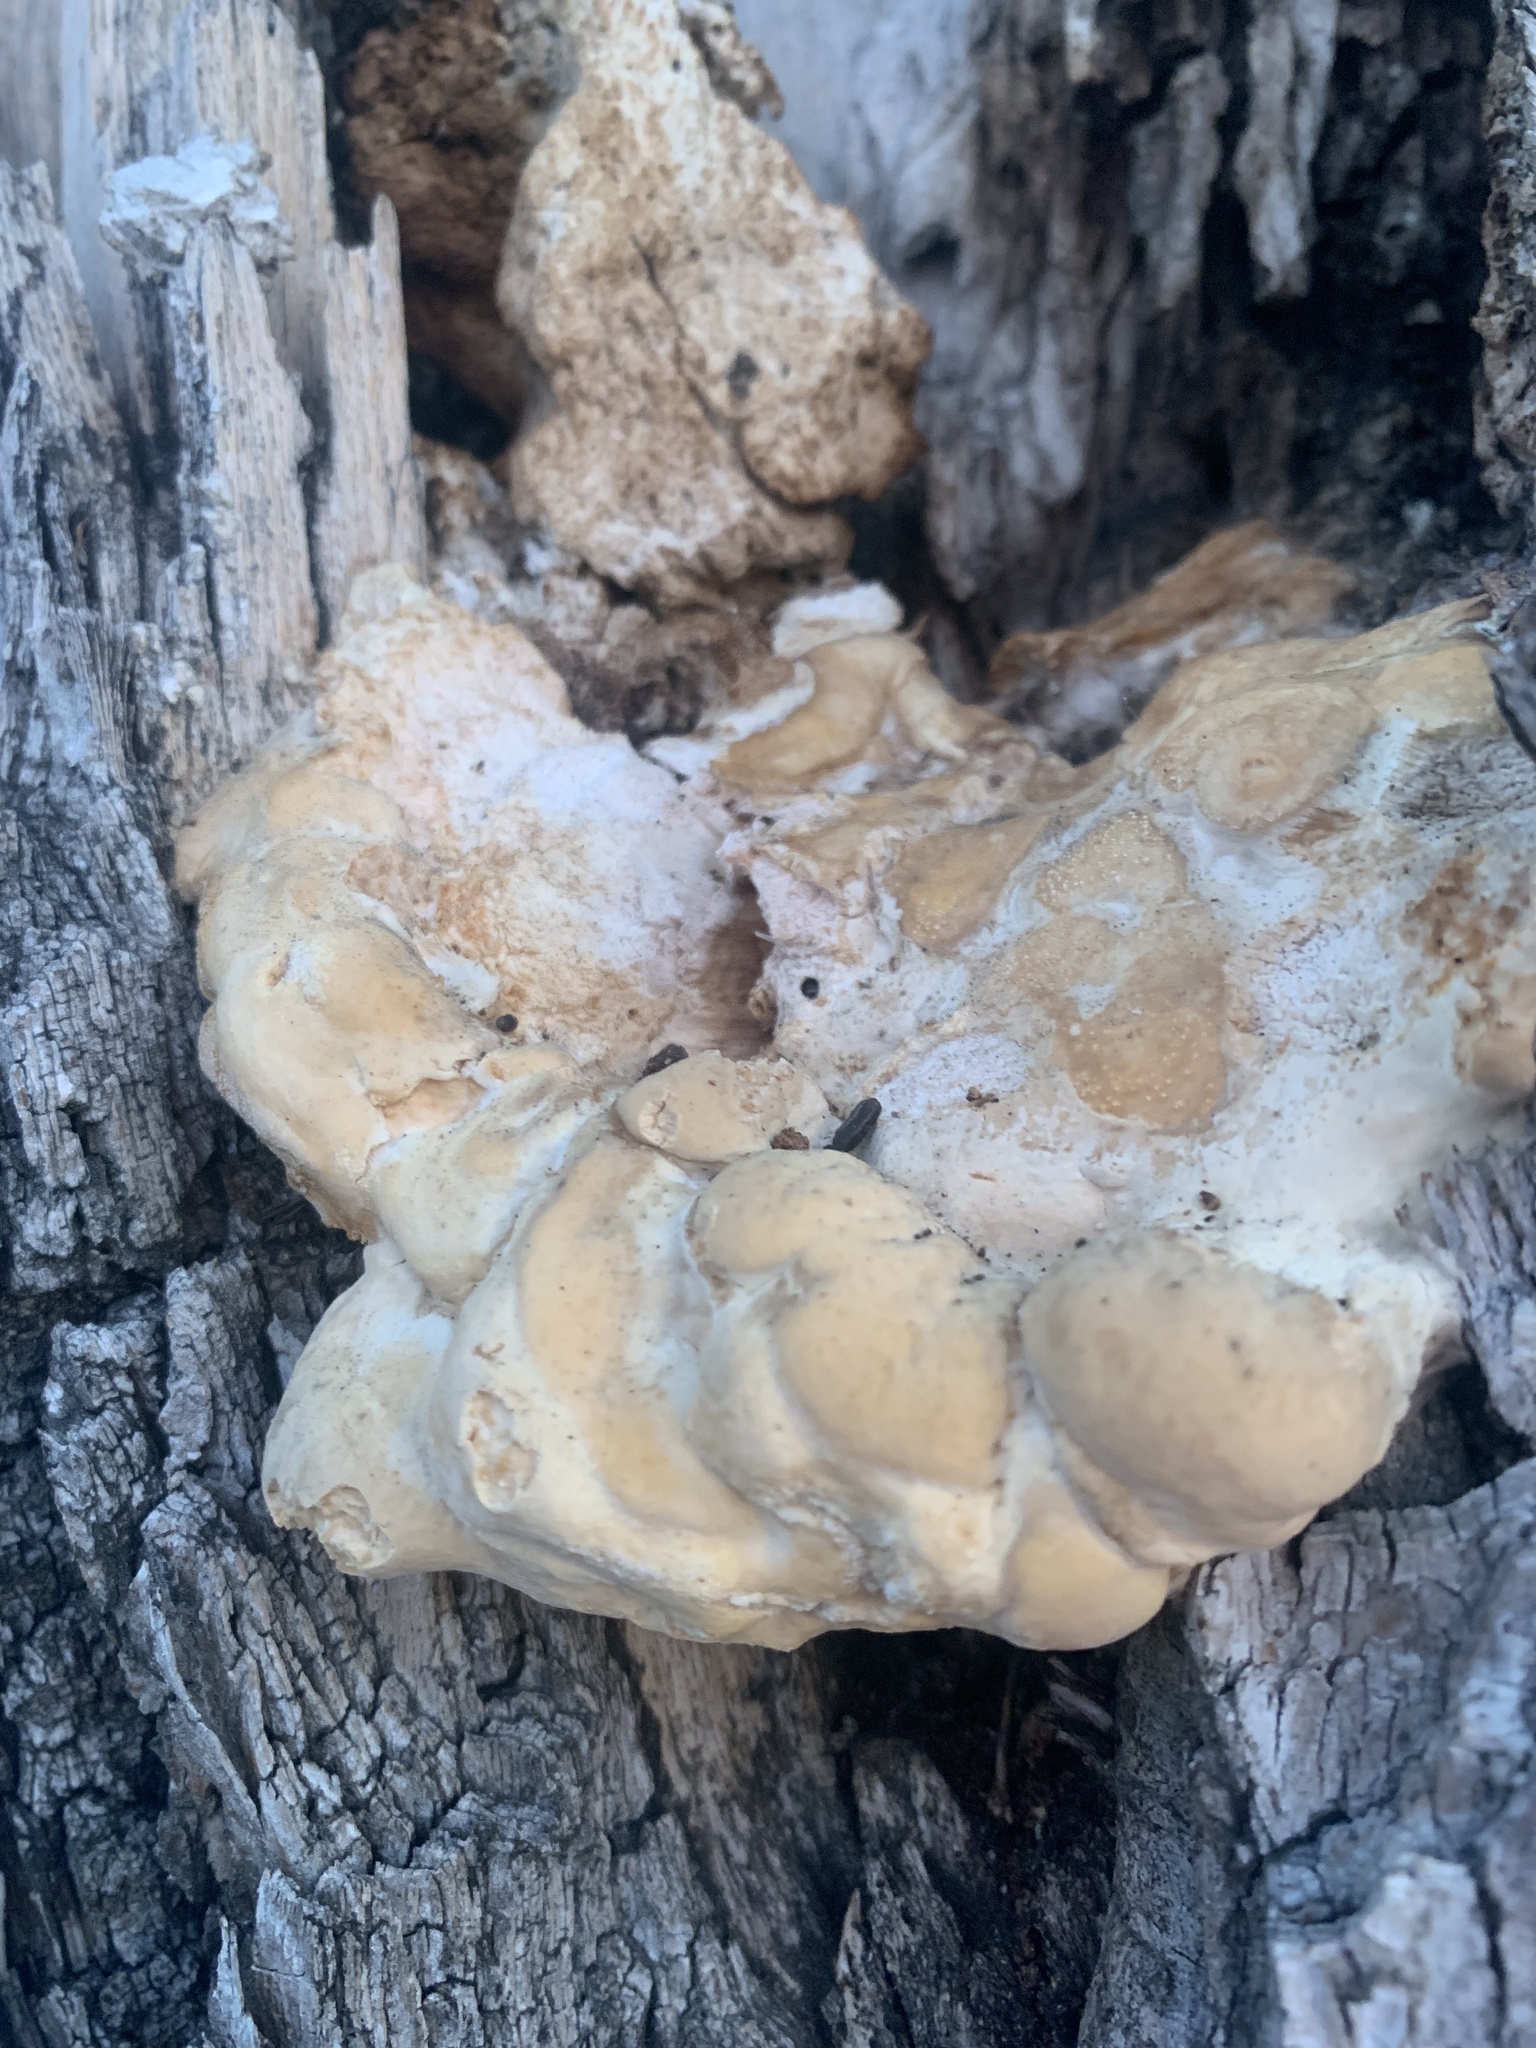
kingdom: Fungi
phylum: Basidiomycota
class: Agaricomycetes
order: Polyporales
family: Laetiporaceae
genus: Laetiporus
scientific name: Laetiporus sulphureus
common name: Chicken of the woods
